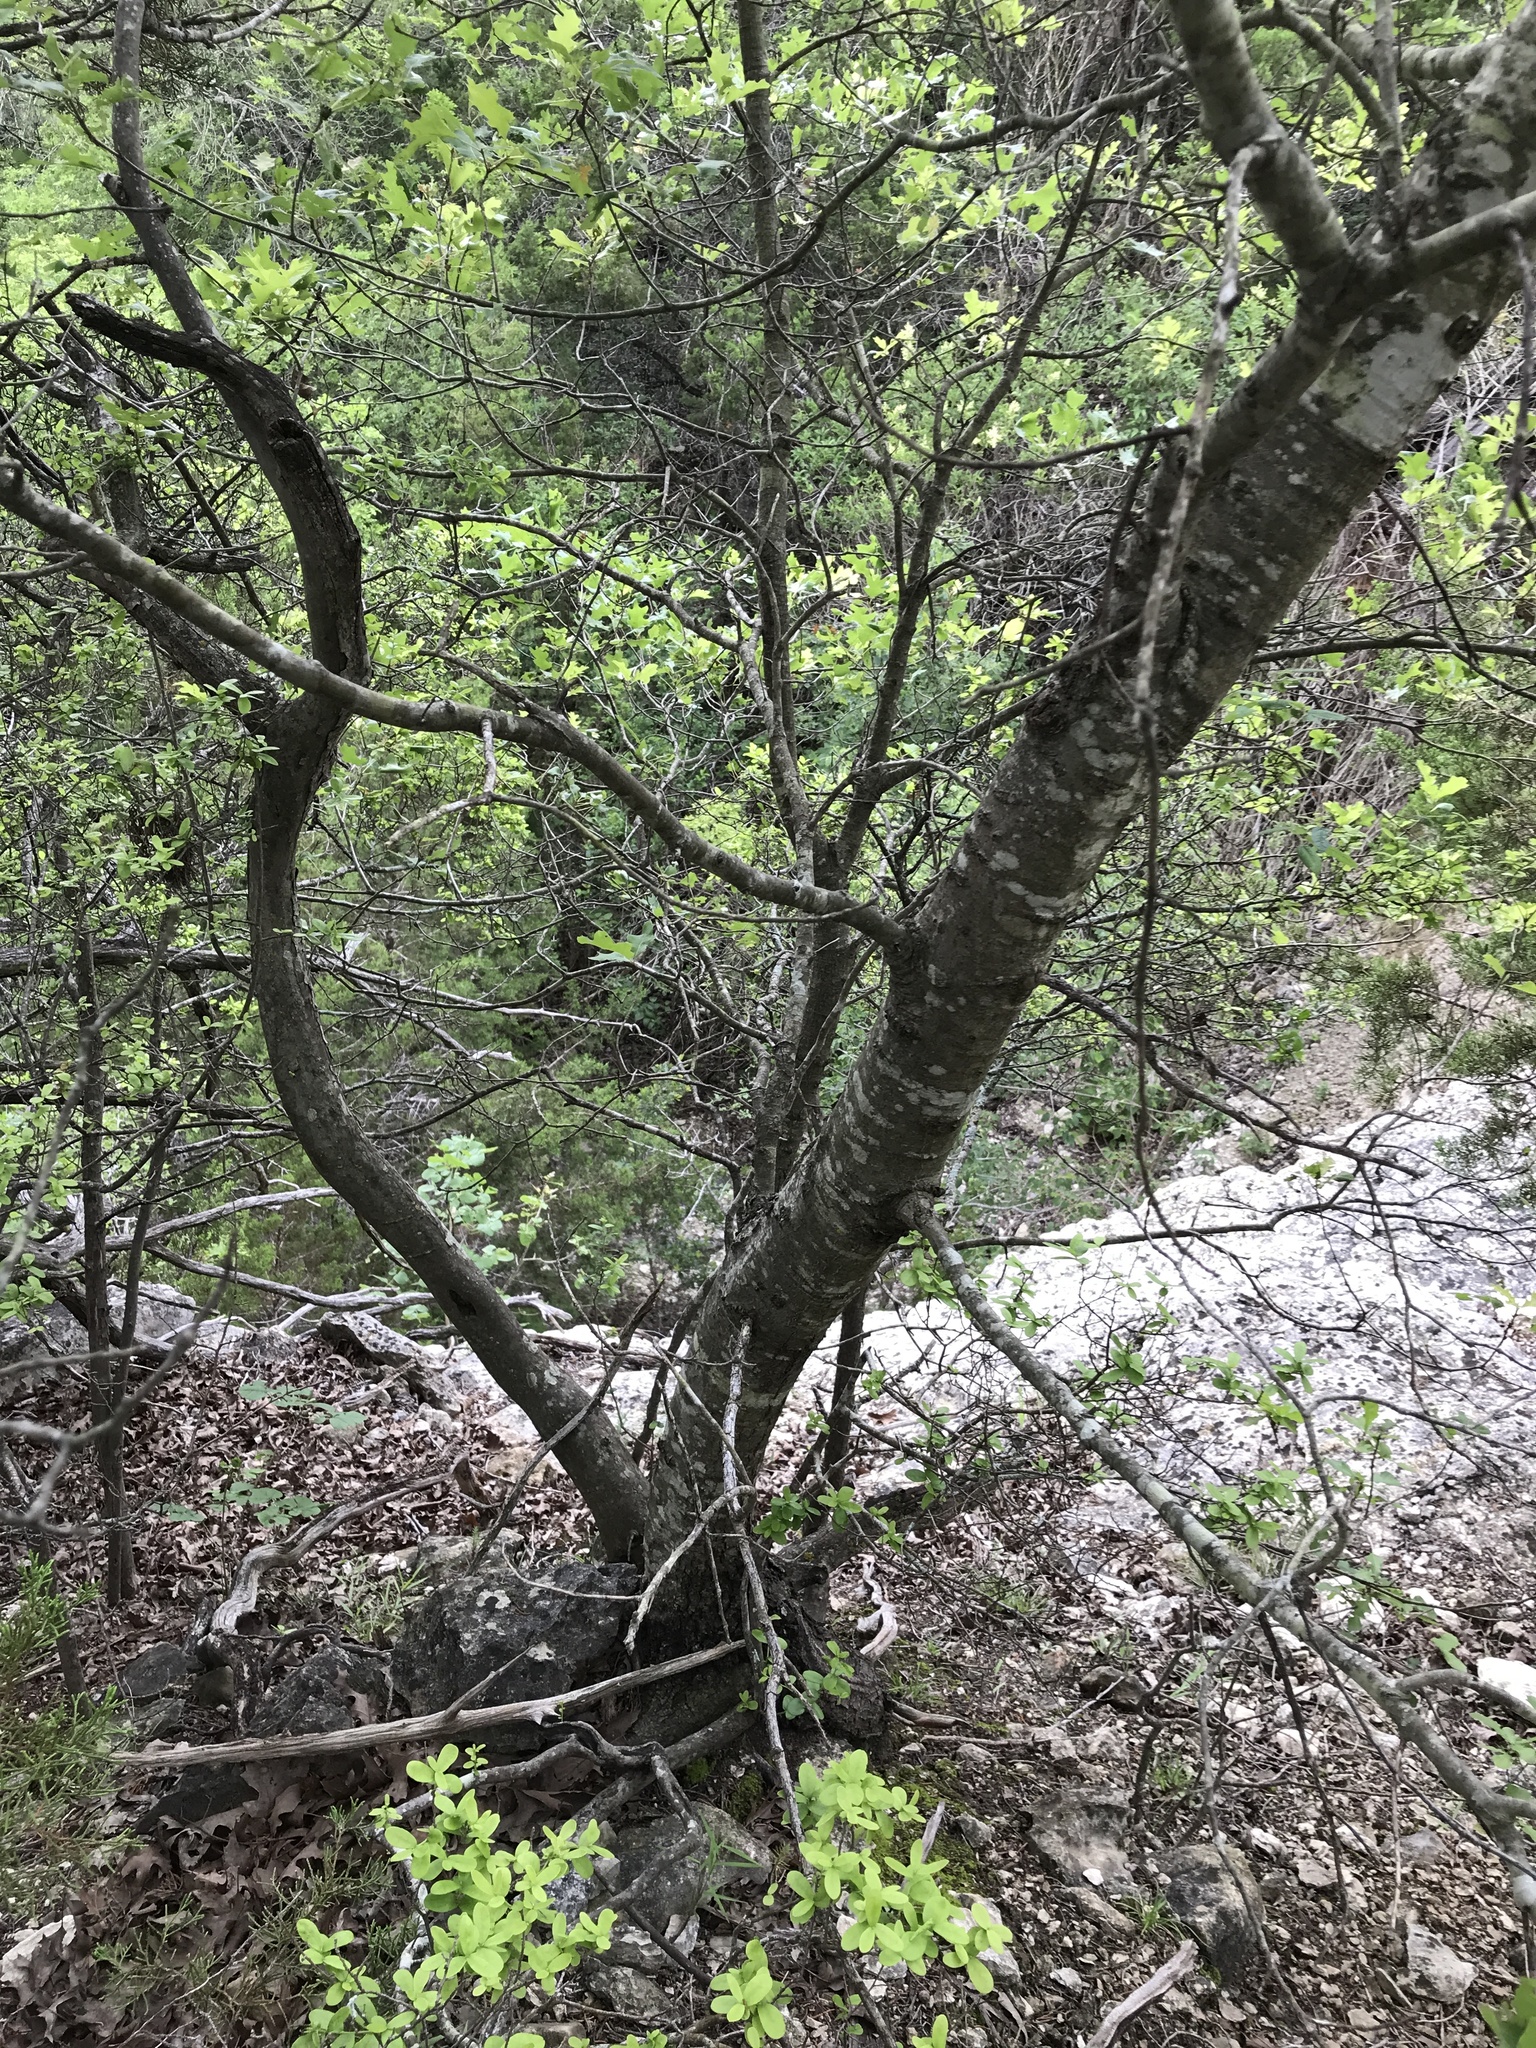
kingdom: Plantae
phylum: Tracheophyta
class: Magnoliopsida
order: Fagales
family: Fagaceae
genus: Quercus
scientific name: Quercus buckleyi
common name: Buckley oak
